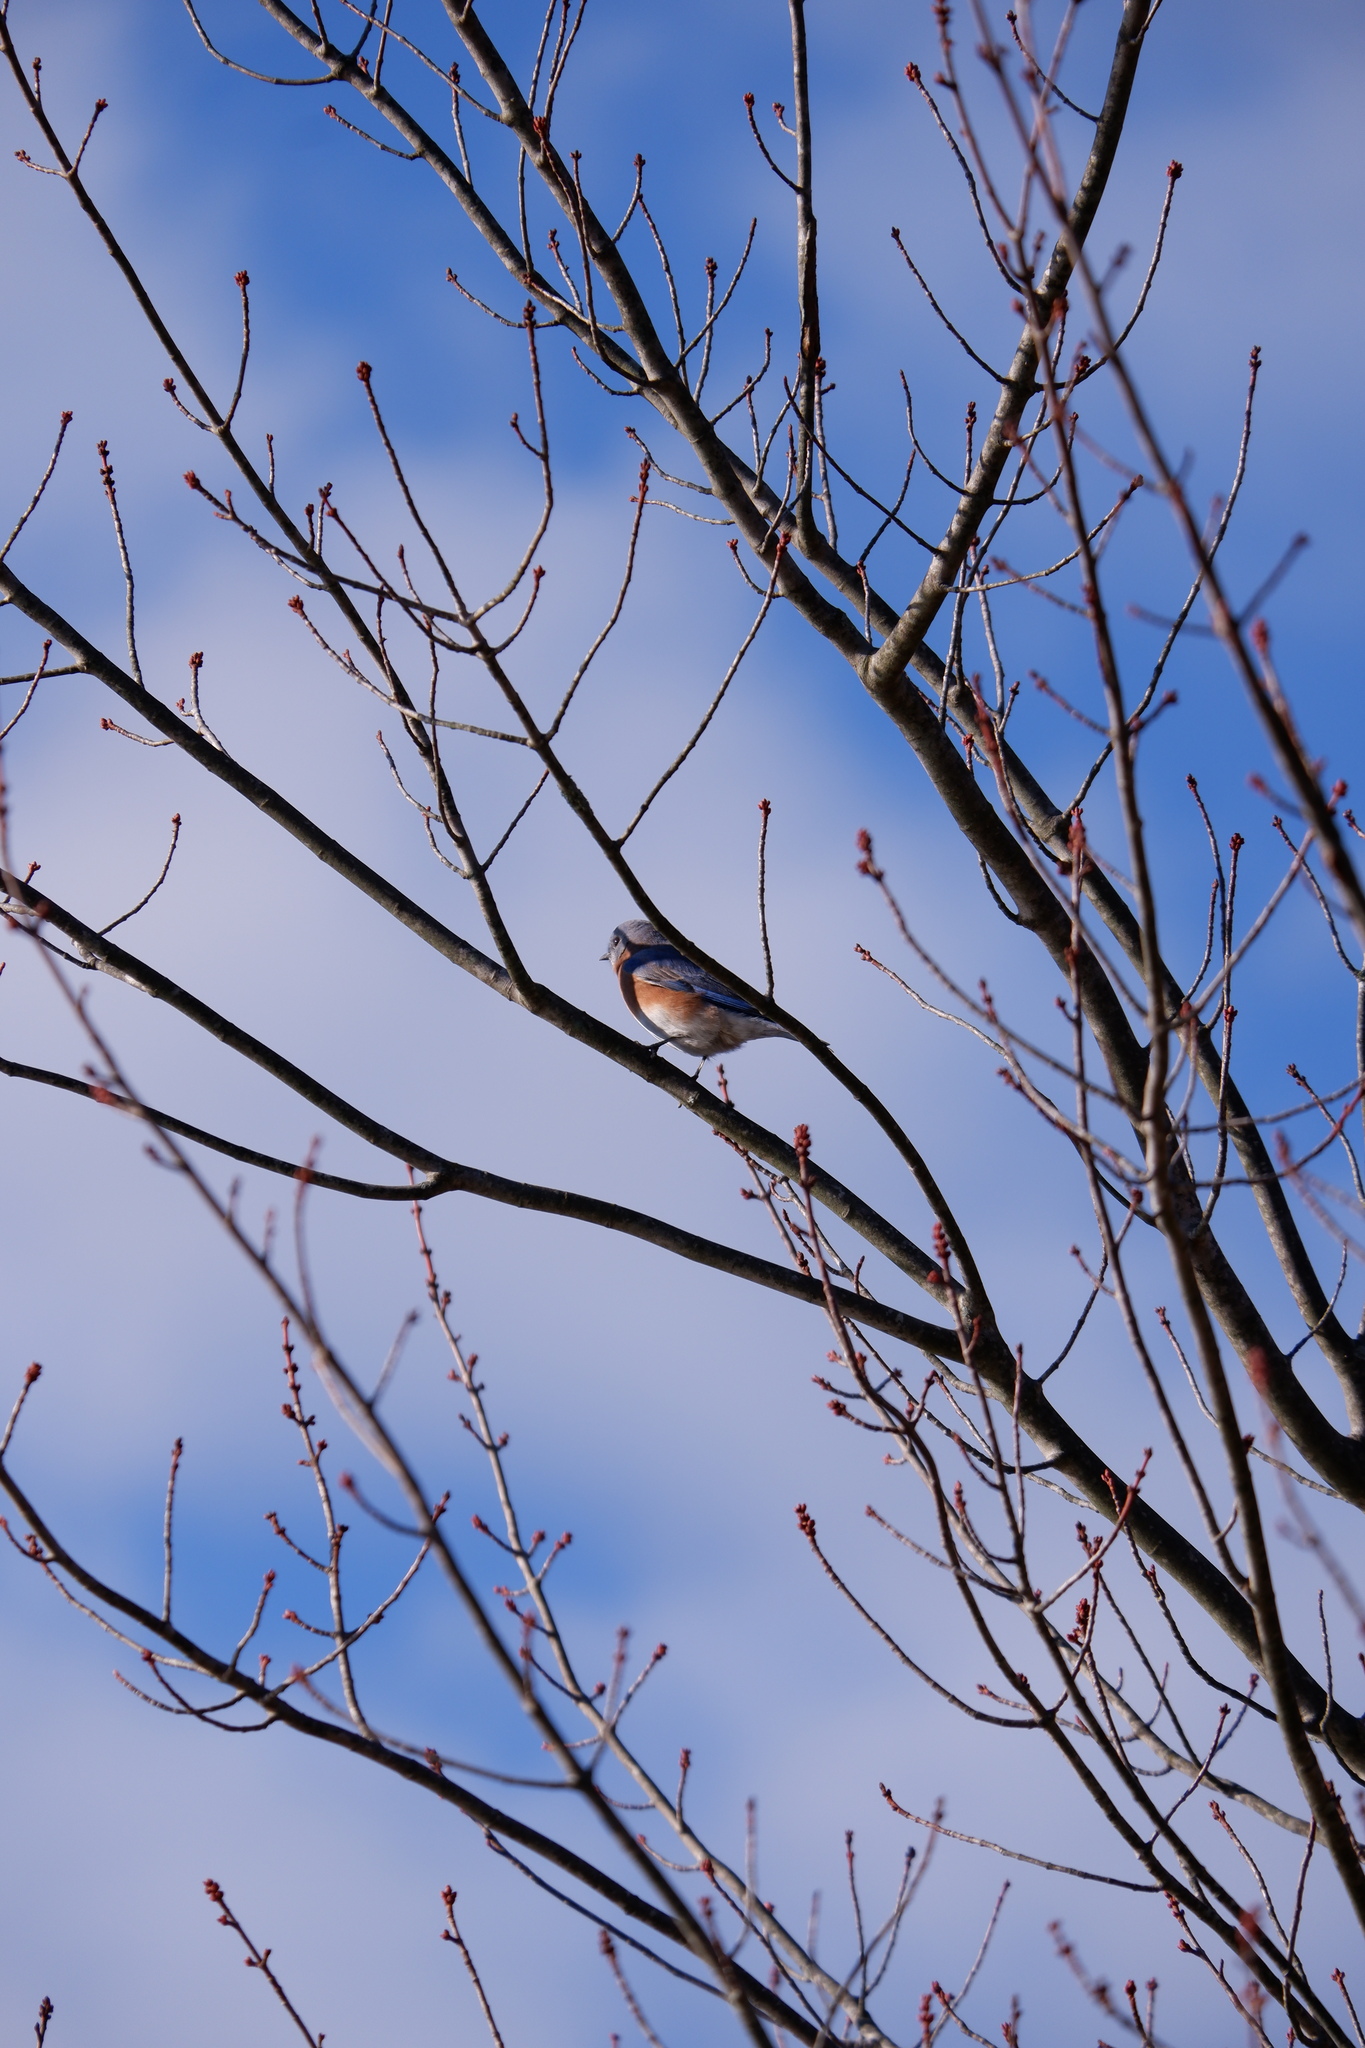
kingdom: Animalia
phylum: Chordata
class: Aves
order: Passeriformes
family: Turdidae
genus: Sialia
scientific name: Sialia sialis
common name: Eastern bluebird
